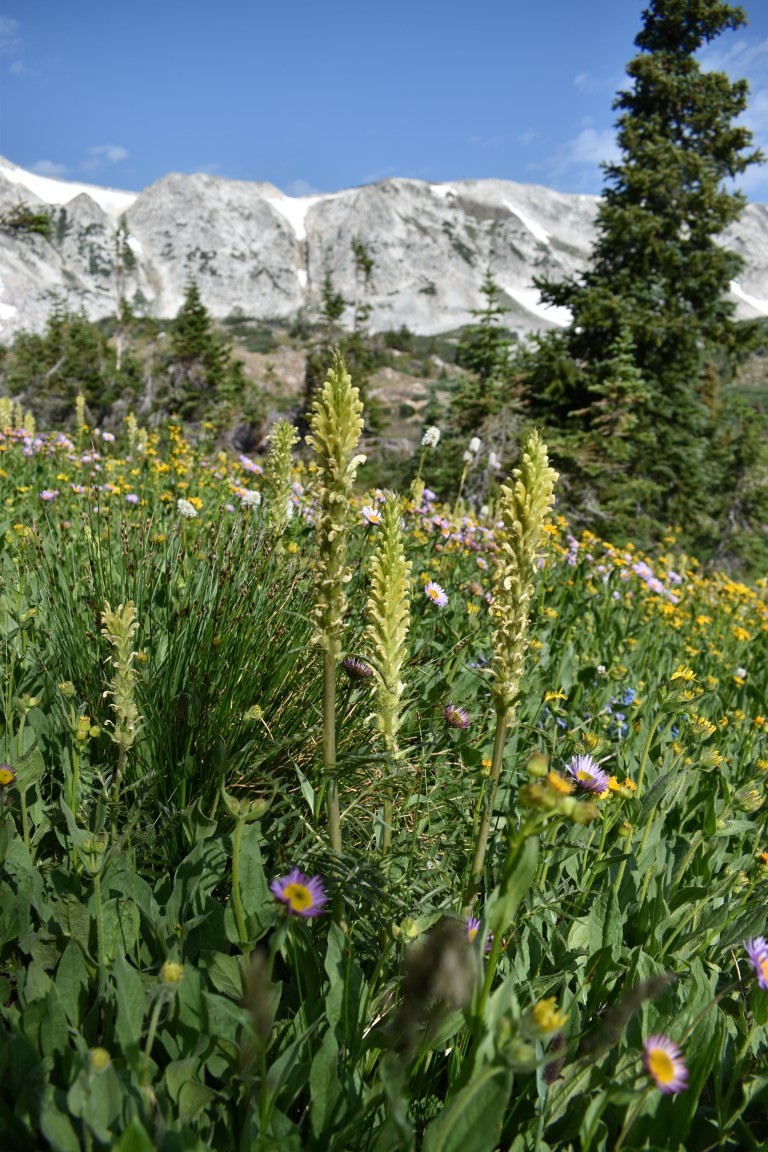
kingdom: Plantae
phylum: Tracheophyta
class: Magnoliopsida
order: Lamiales
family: Orobanchaceae
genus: Pedicularis
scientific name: Pedicularis bracteosa
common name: Bracted lousewort
